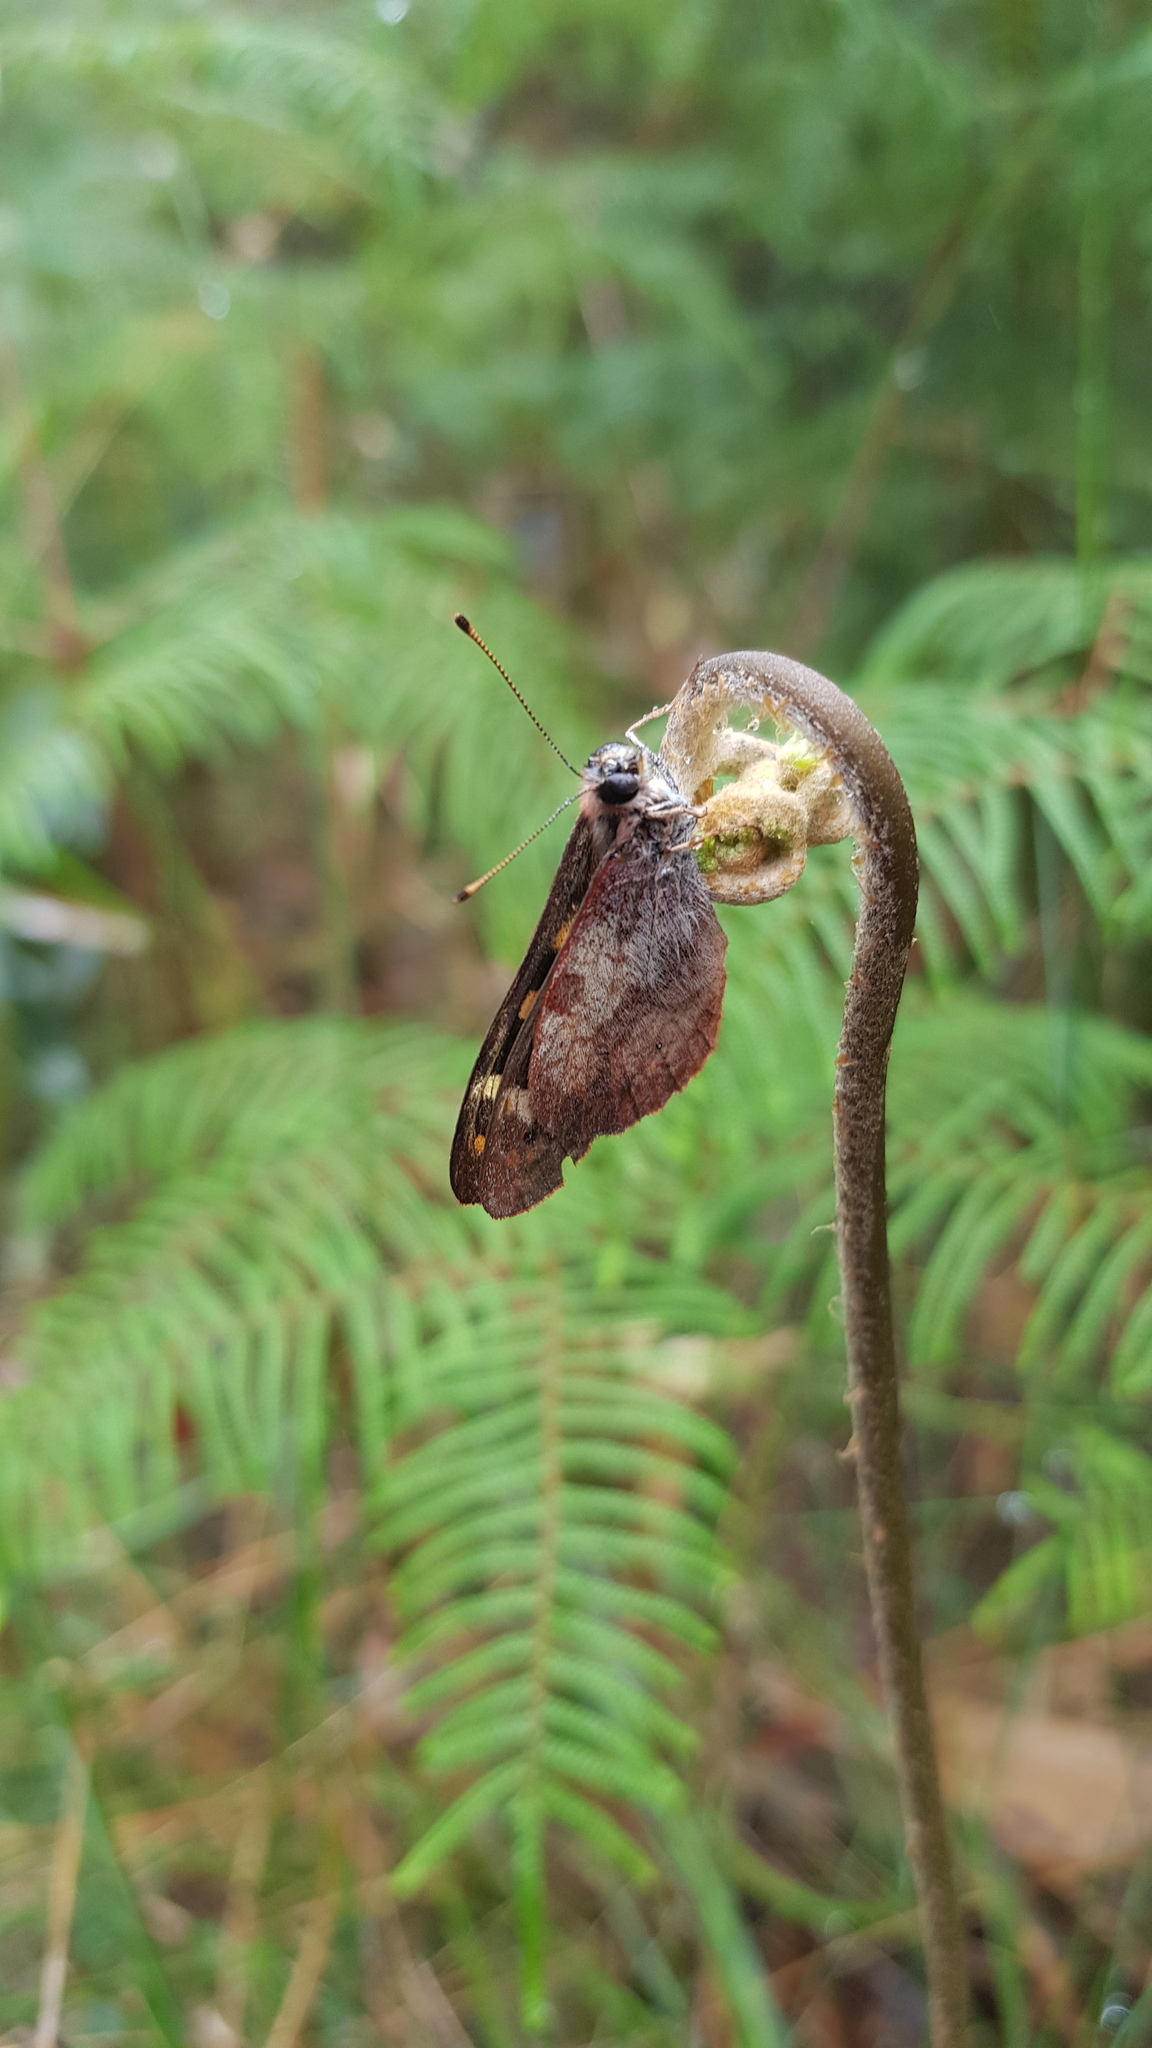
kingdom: Animalia
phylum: Arthropoda
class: Insecta
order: Lepidoptera
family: Nymphalidae
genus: Argynnina
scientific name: Argynnina cyrila
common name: Cyril's brown
